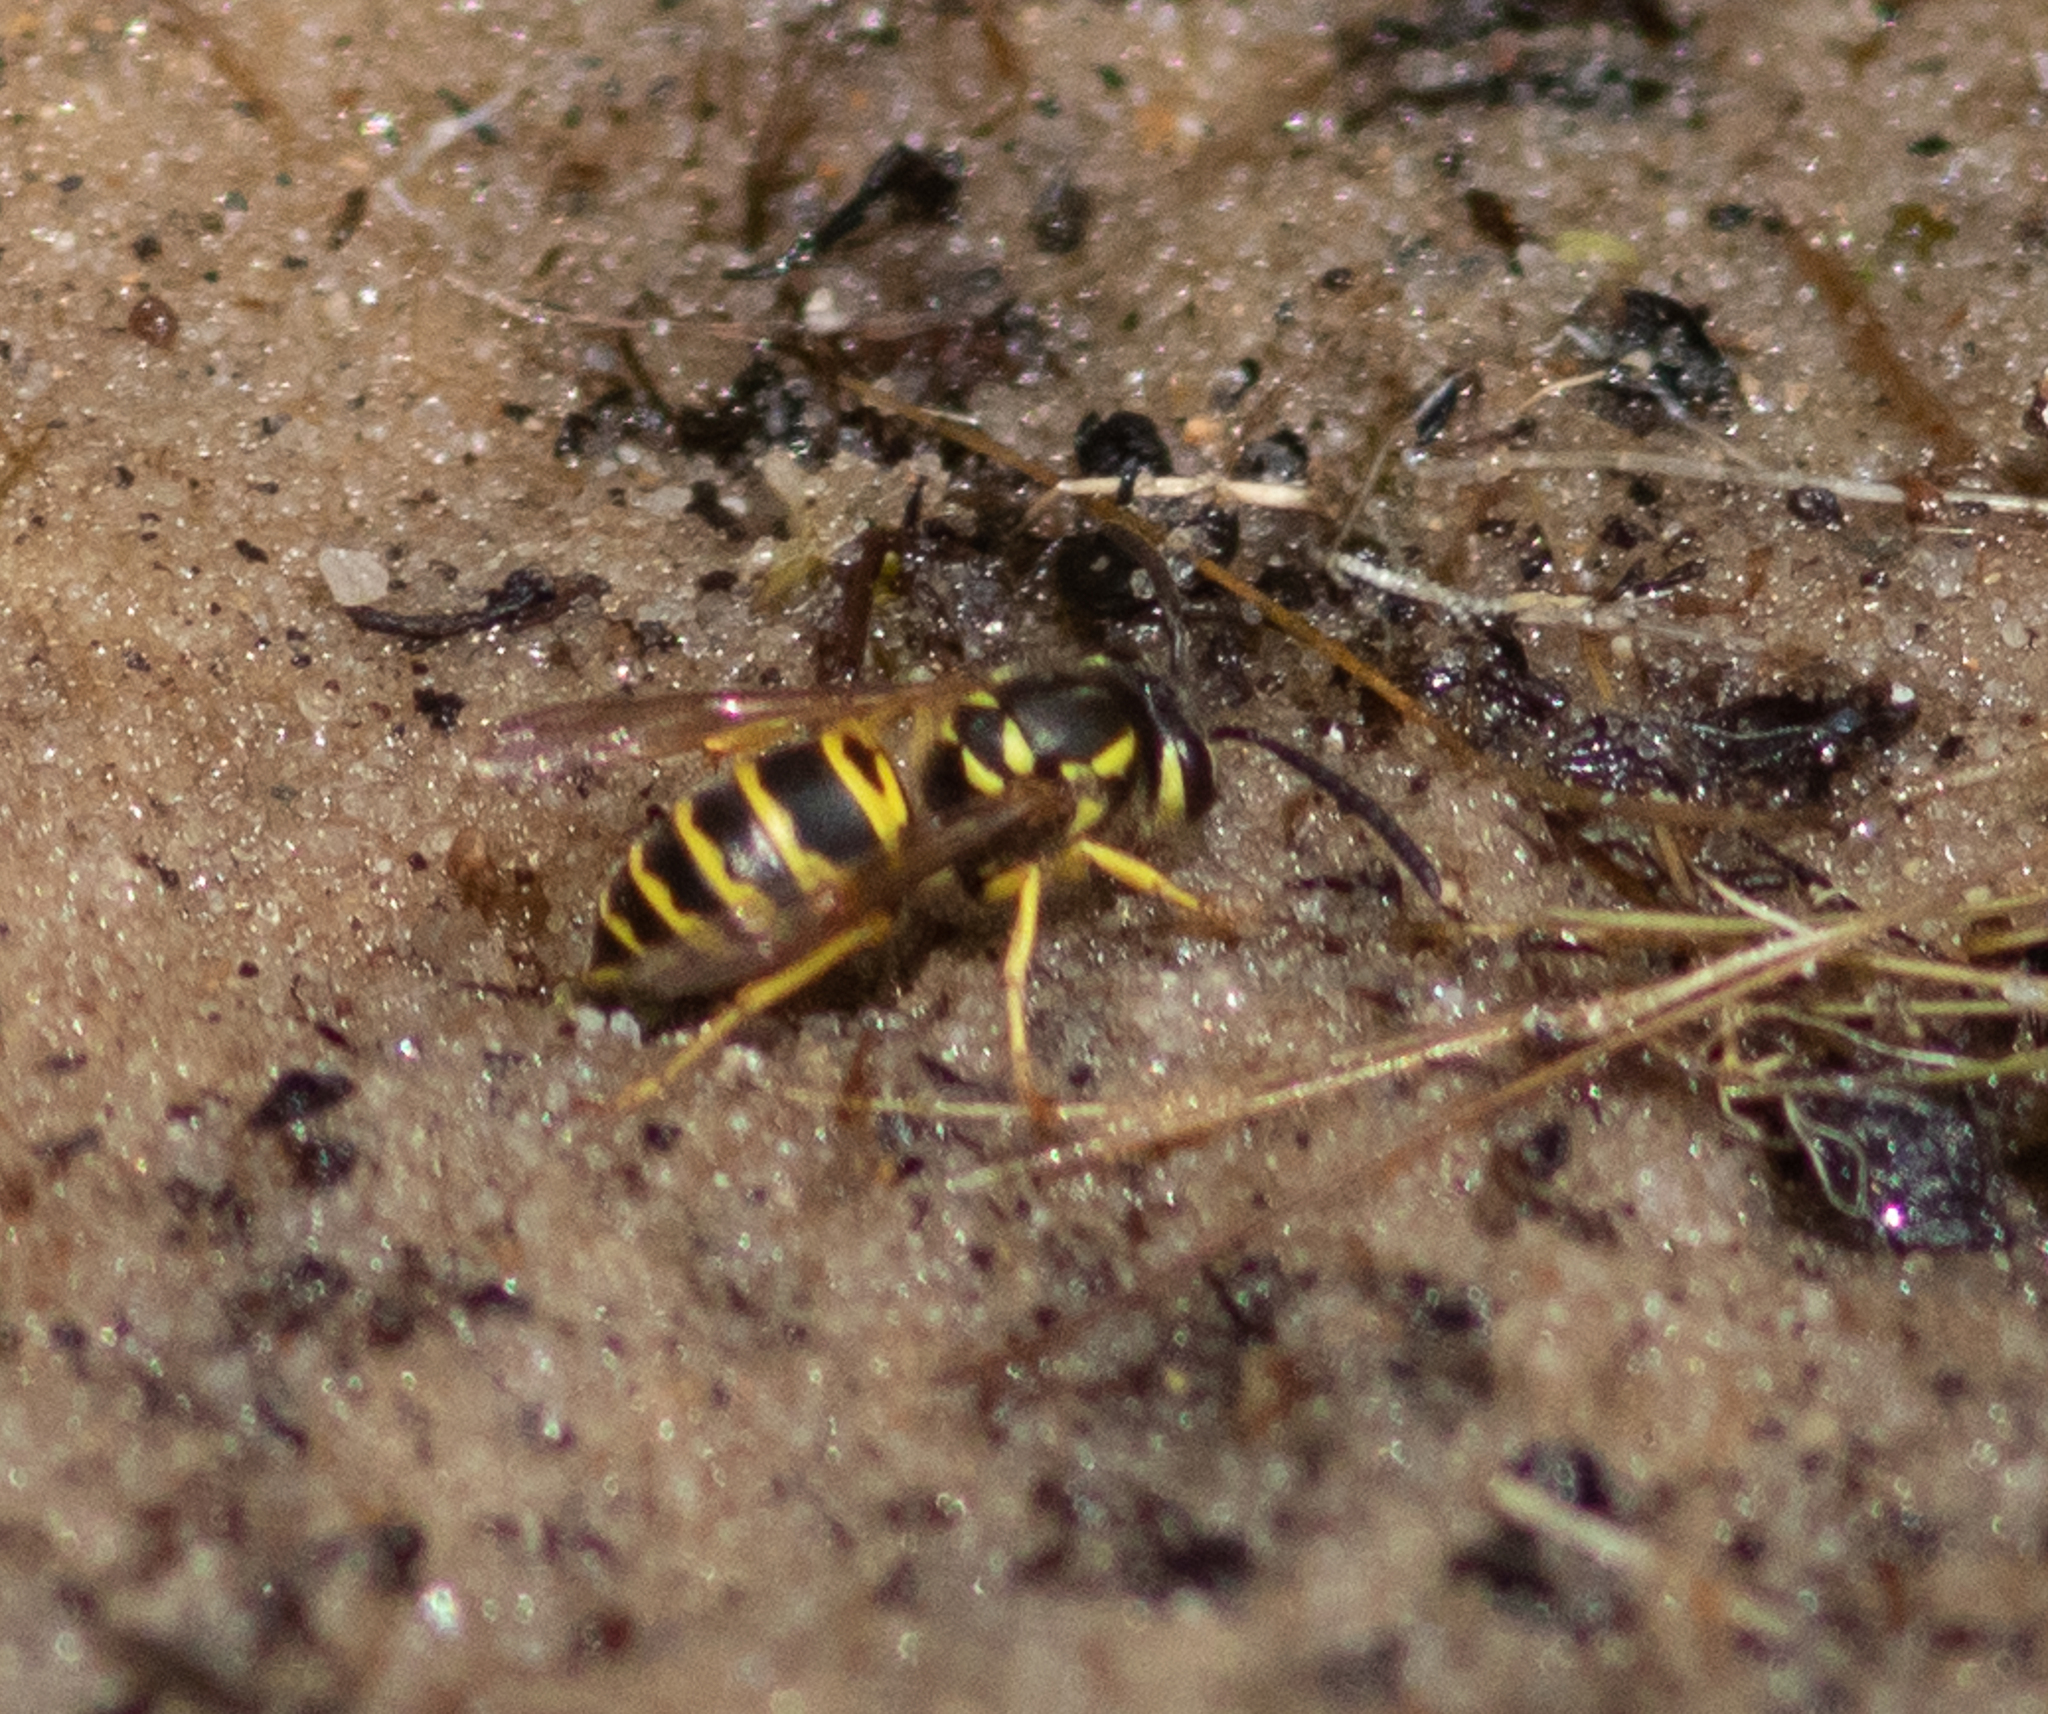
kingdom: Animalia
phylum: Arthropoda
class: Insecta
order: Hymenoptera
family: Vespidae
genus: Vespula
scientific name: Vespula maculifrons
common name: Eastern yellowjacket
